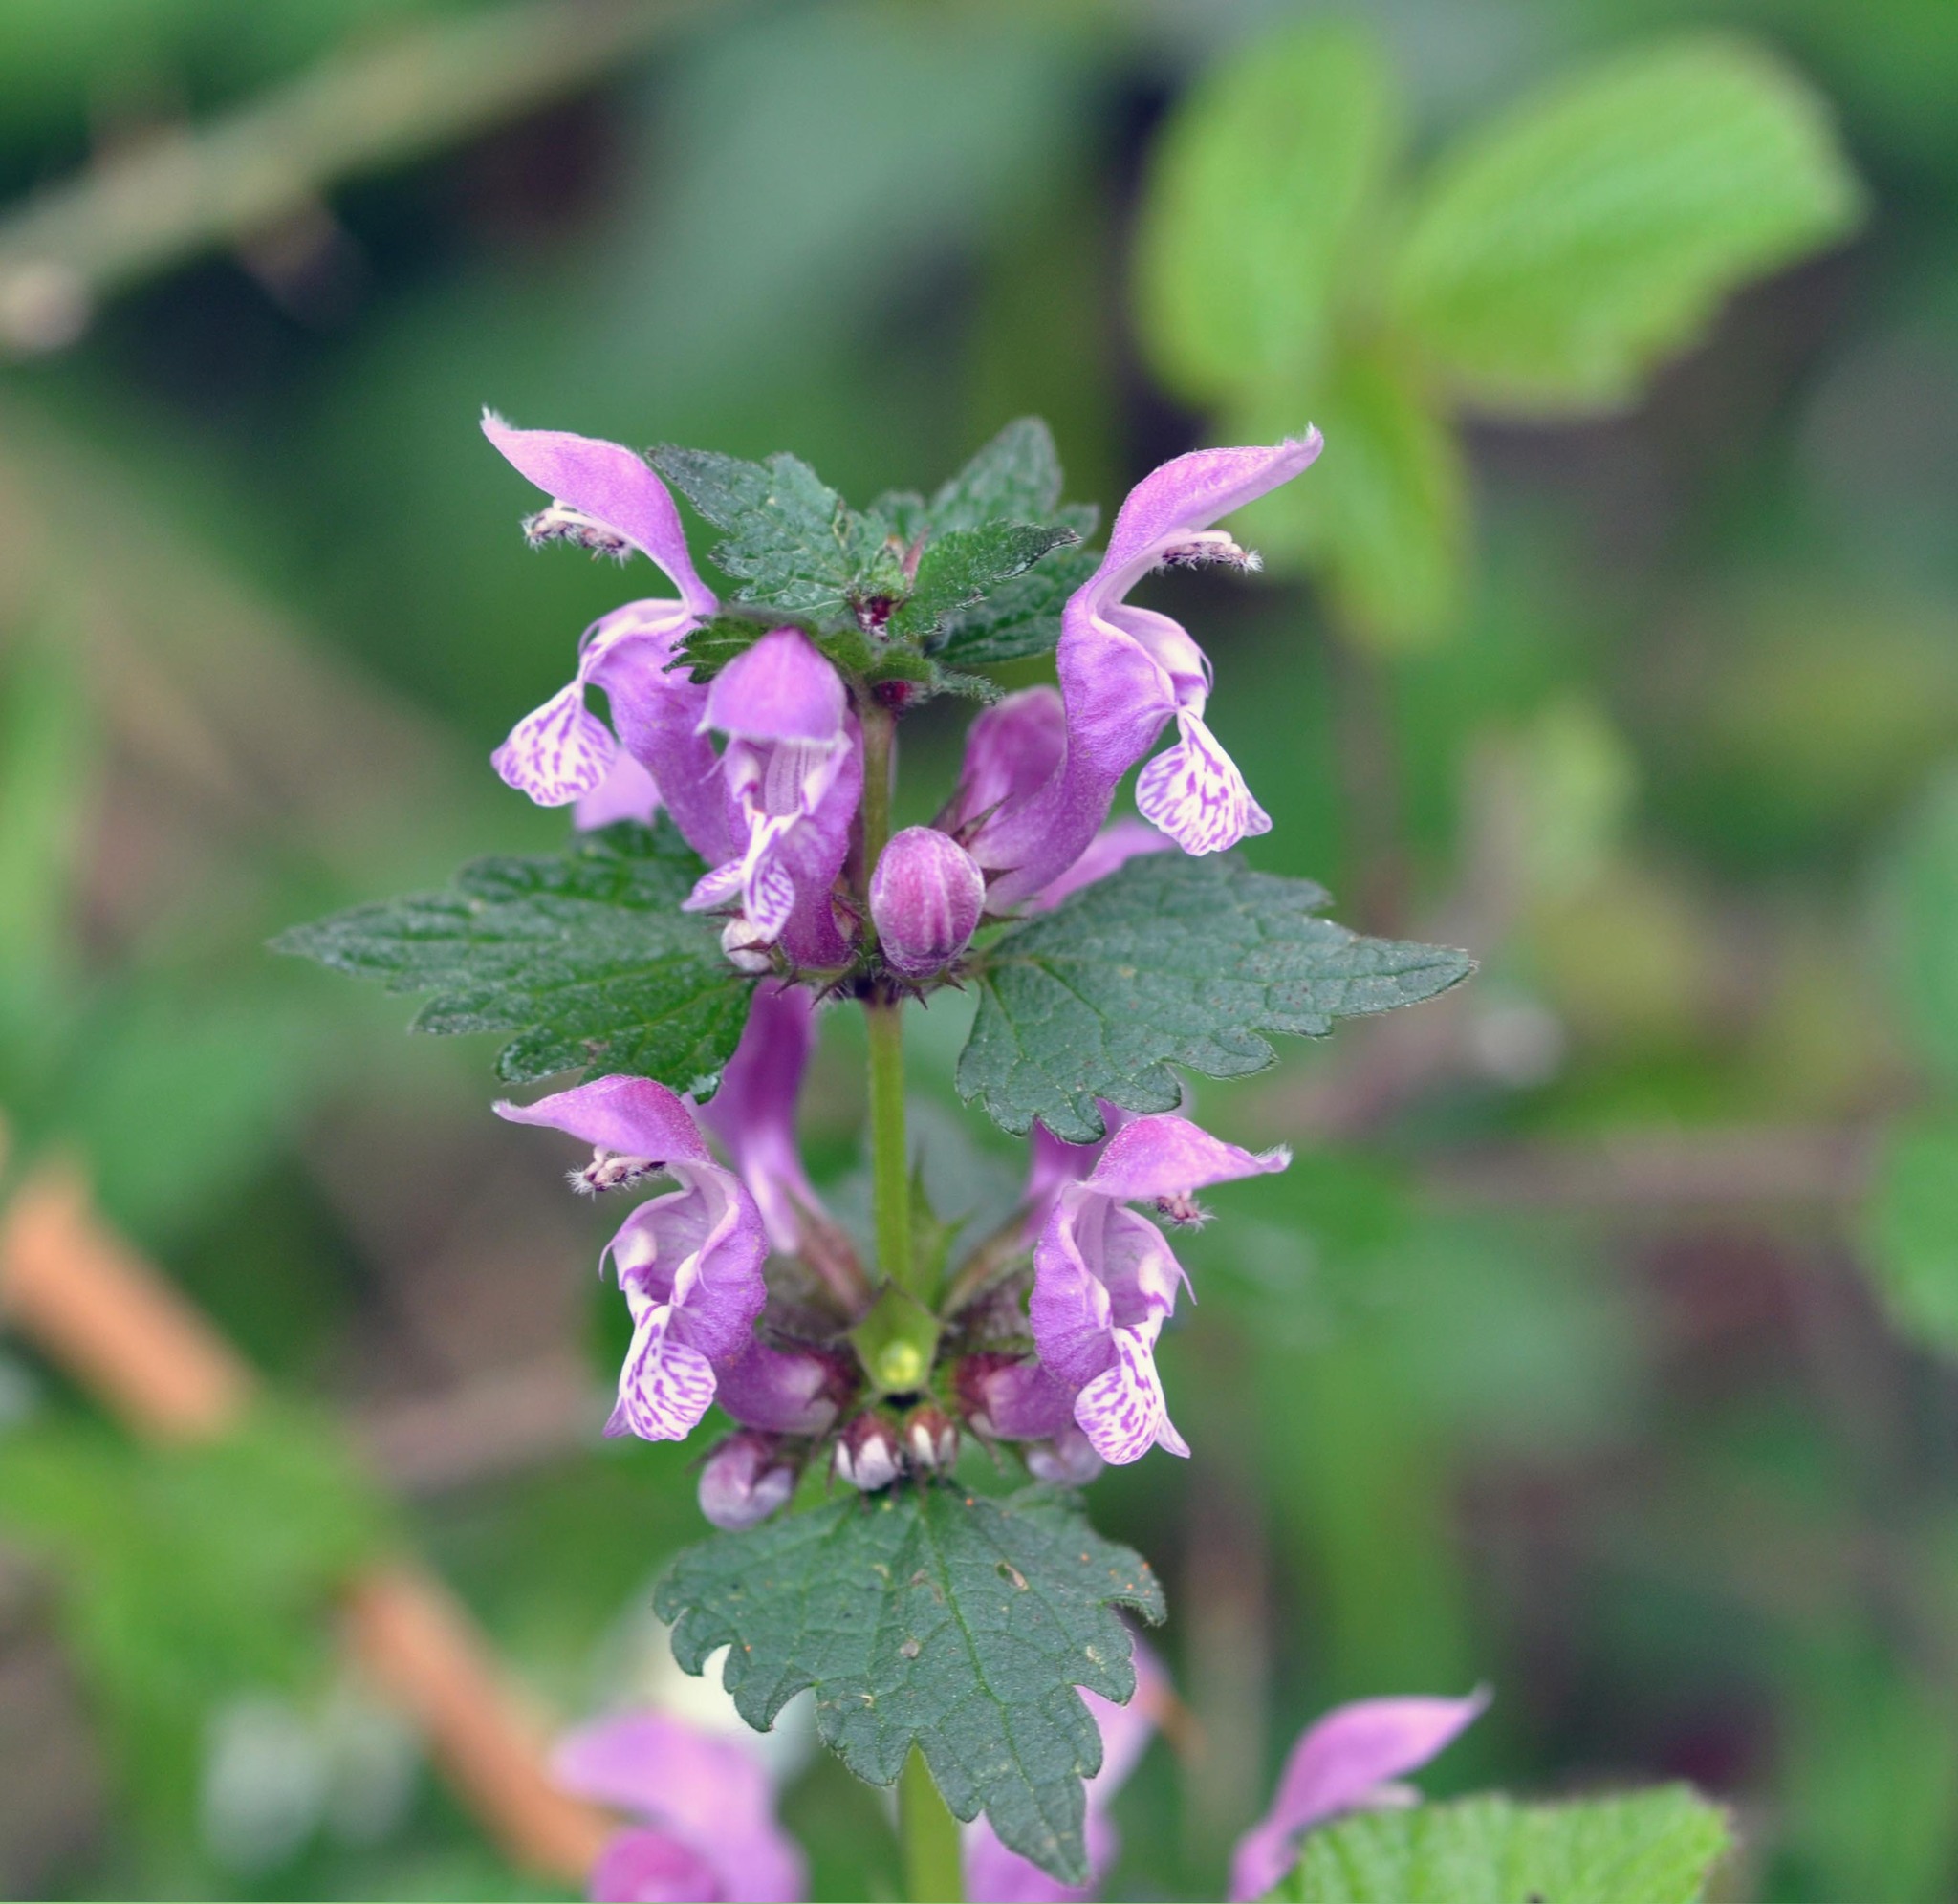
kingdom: Plantae
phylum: Tracheophyta
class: Magnoliopsida
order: Lamiales
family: Lamiaceae
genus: Lamium
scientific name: Lamium maculatum
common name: Spotted dead-nettle
